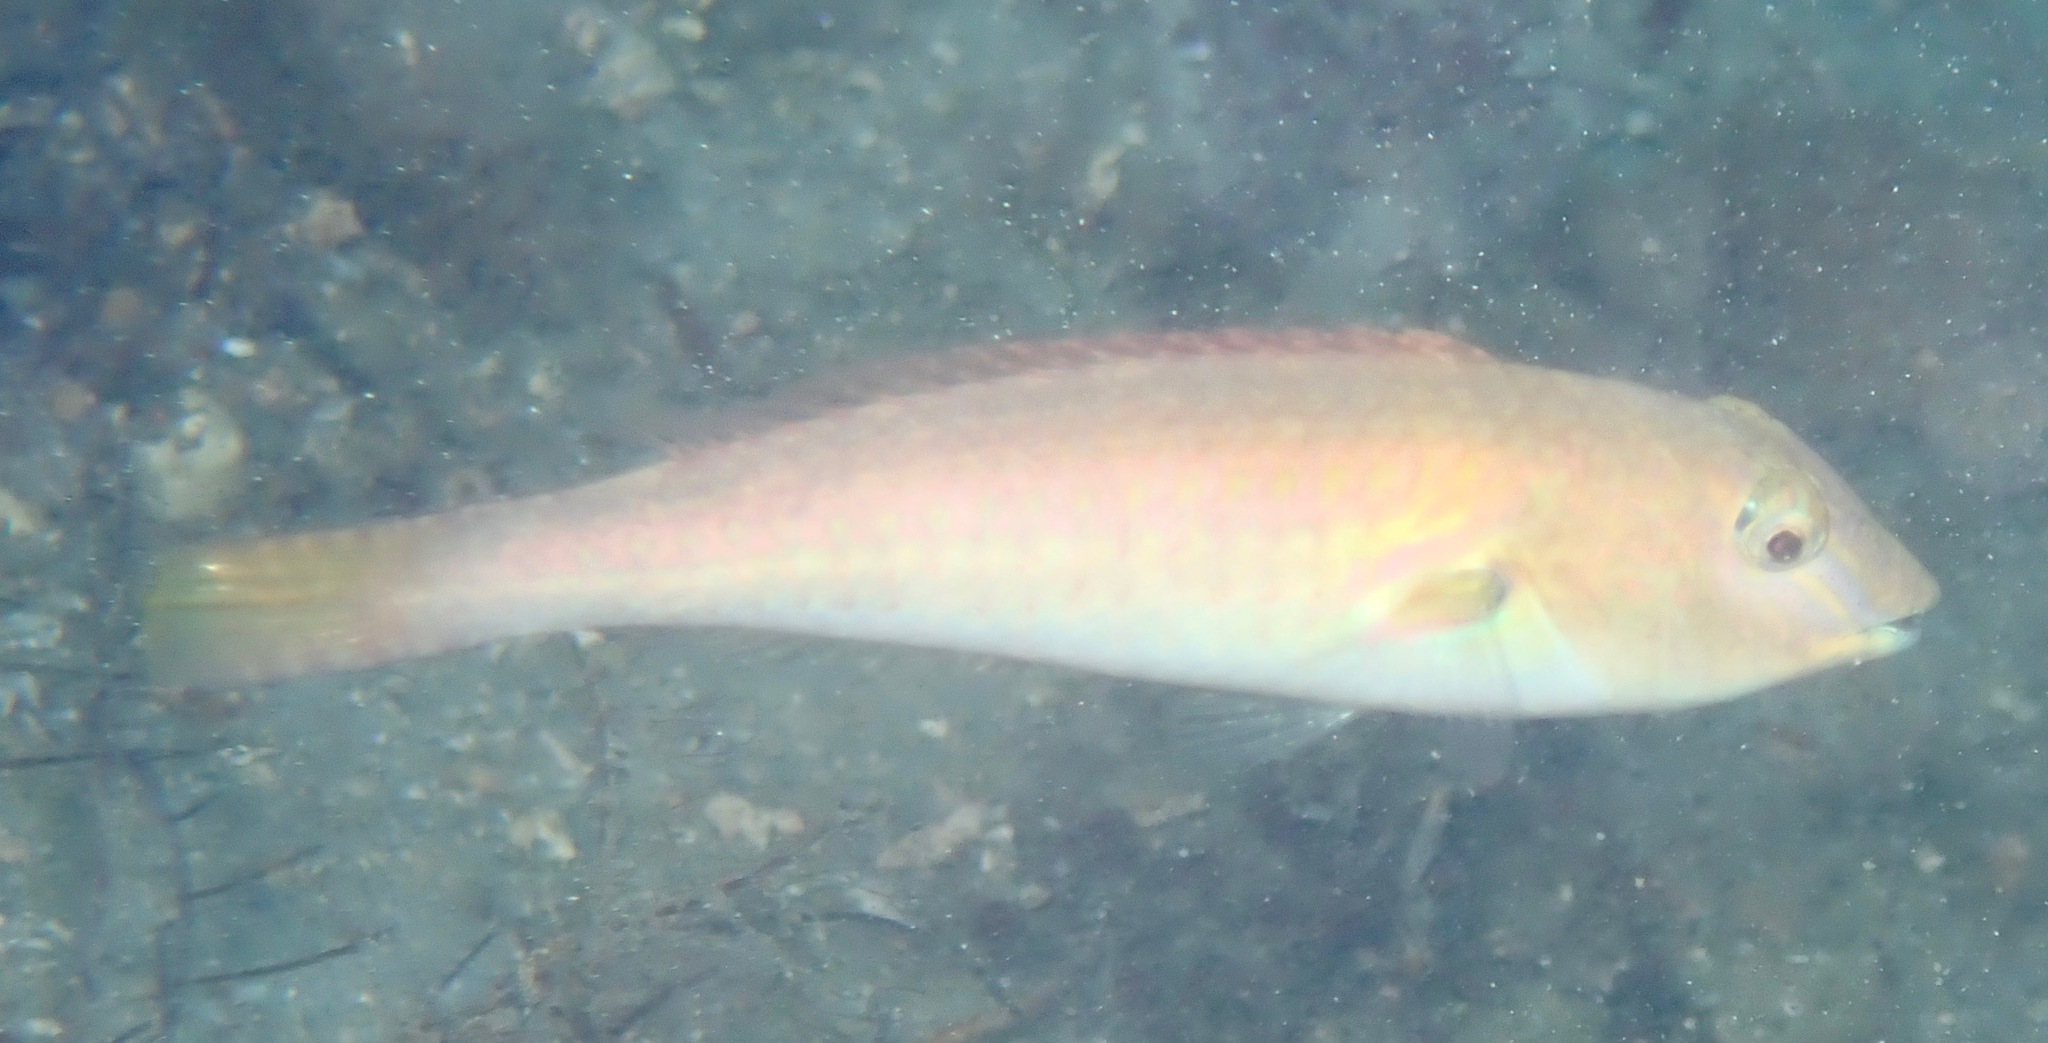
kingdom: Animalia
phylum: Chordata
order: Perciformes
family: Scaridae
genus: Cryptotomus
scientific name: Cryptotomus roseus
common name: Bluelip parrotfish
